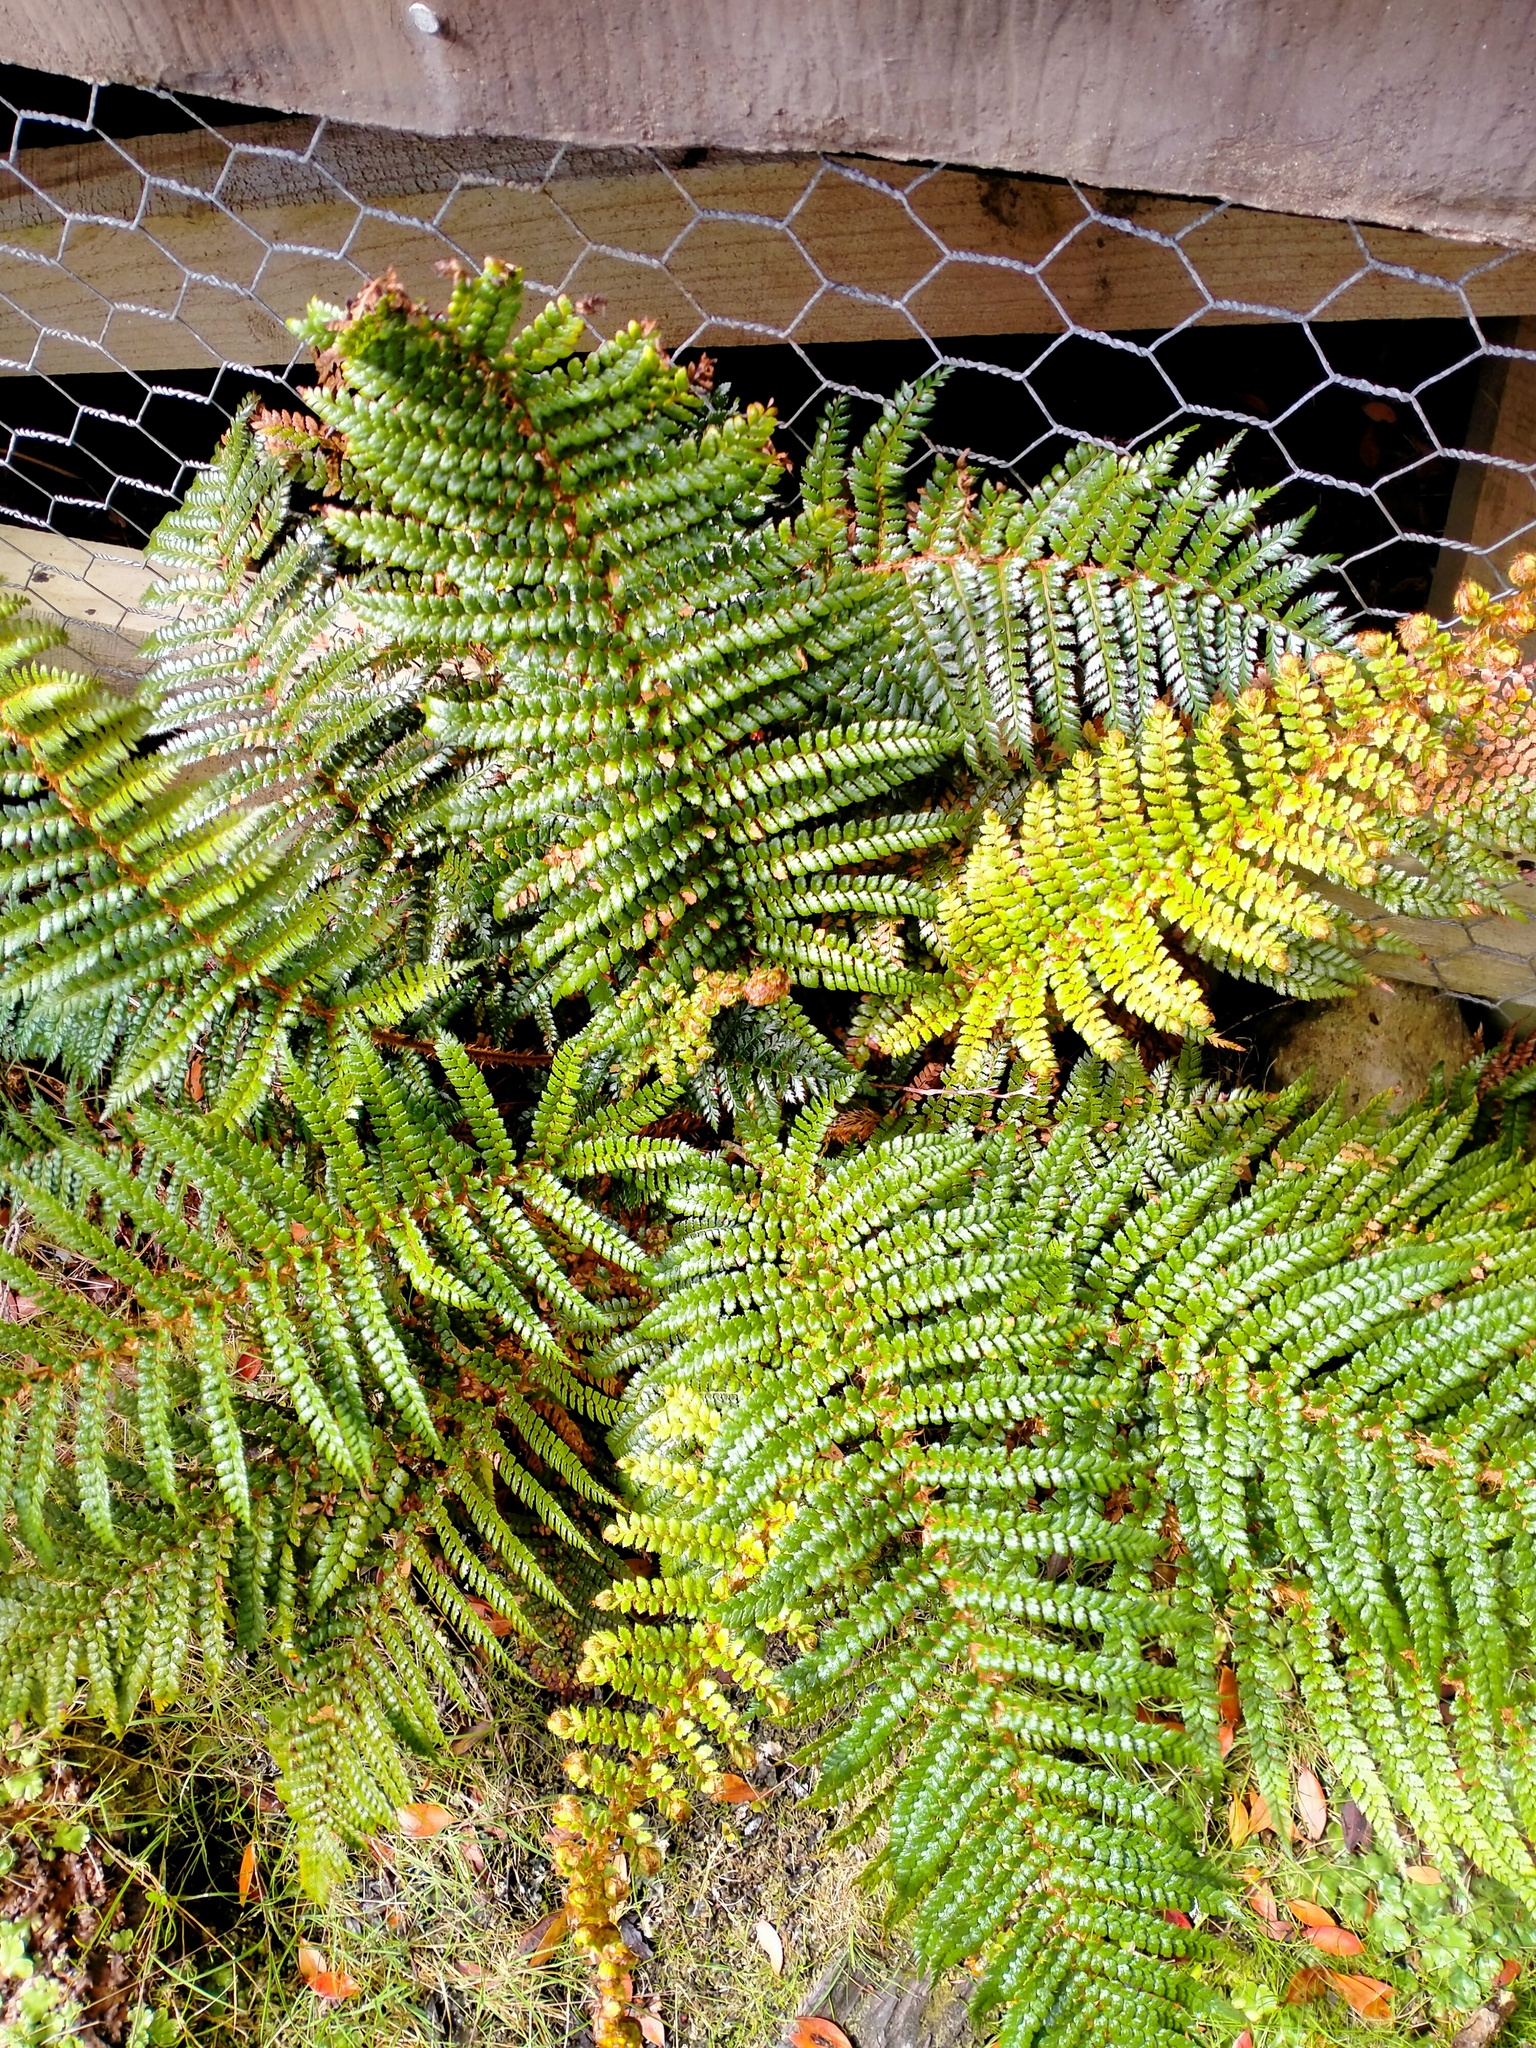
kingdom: Plantae
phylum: Tracheophyta
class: Polypodiopsida
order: Polypodiales
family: Dryopteridaceae
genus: Polystichum
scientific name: Polystichum vestitum
